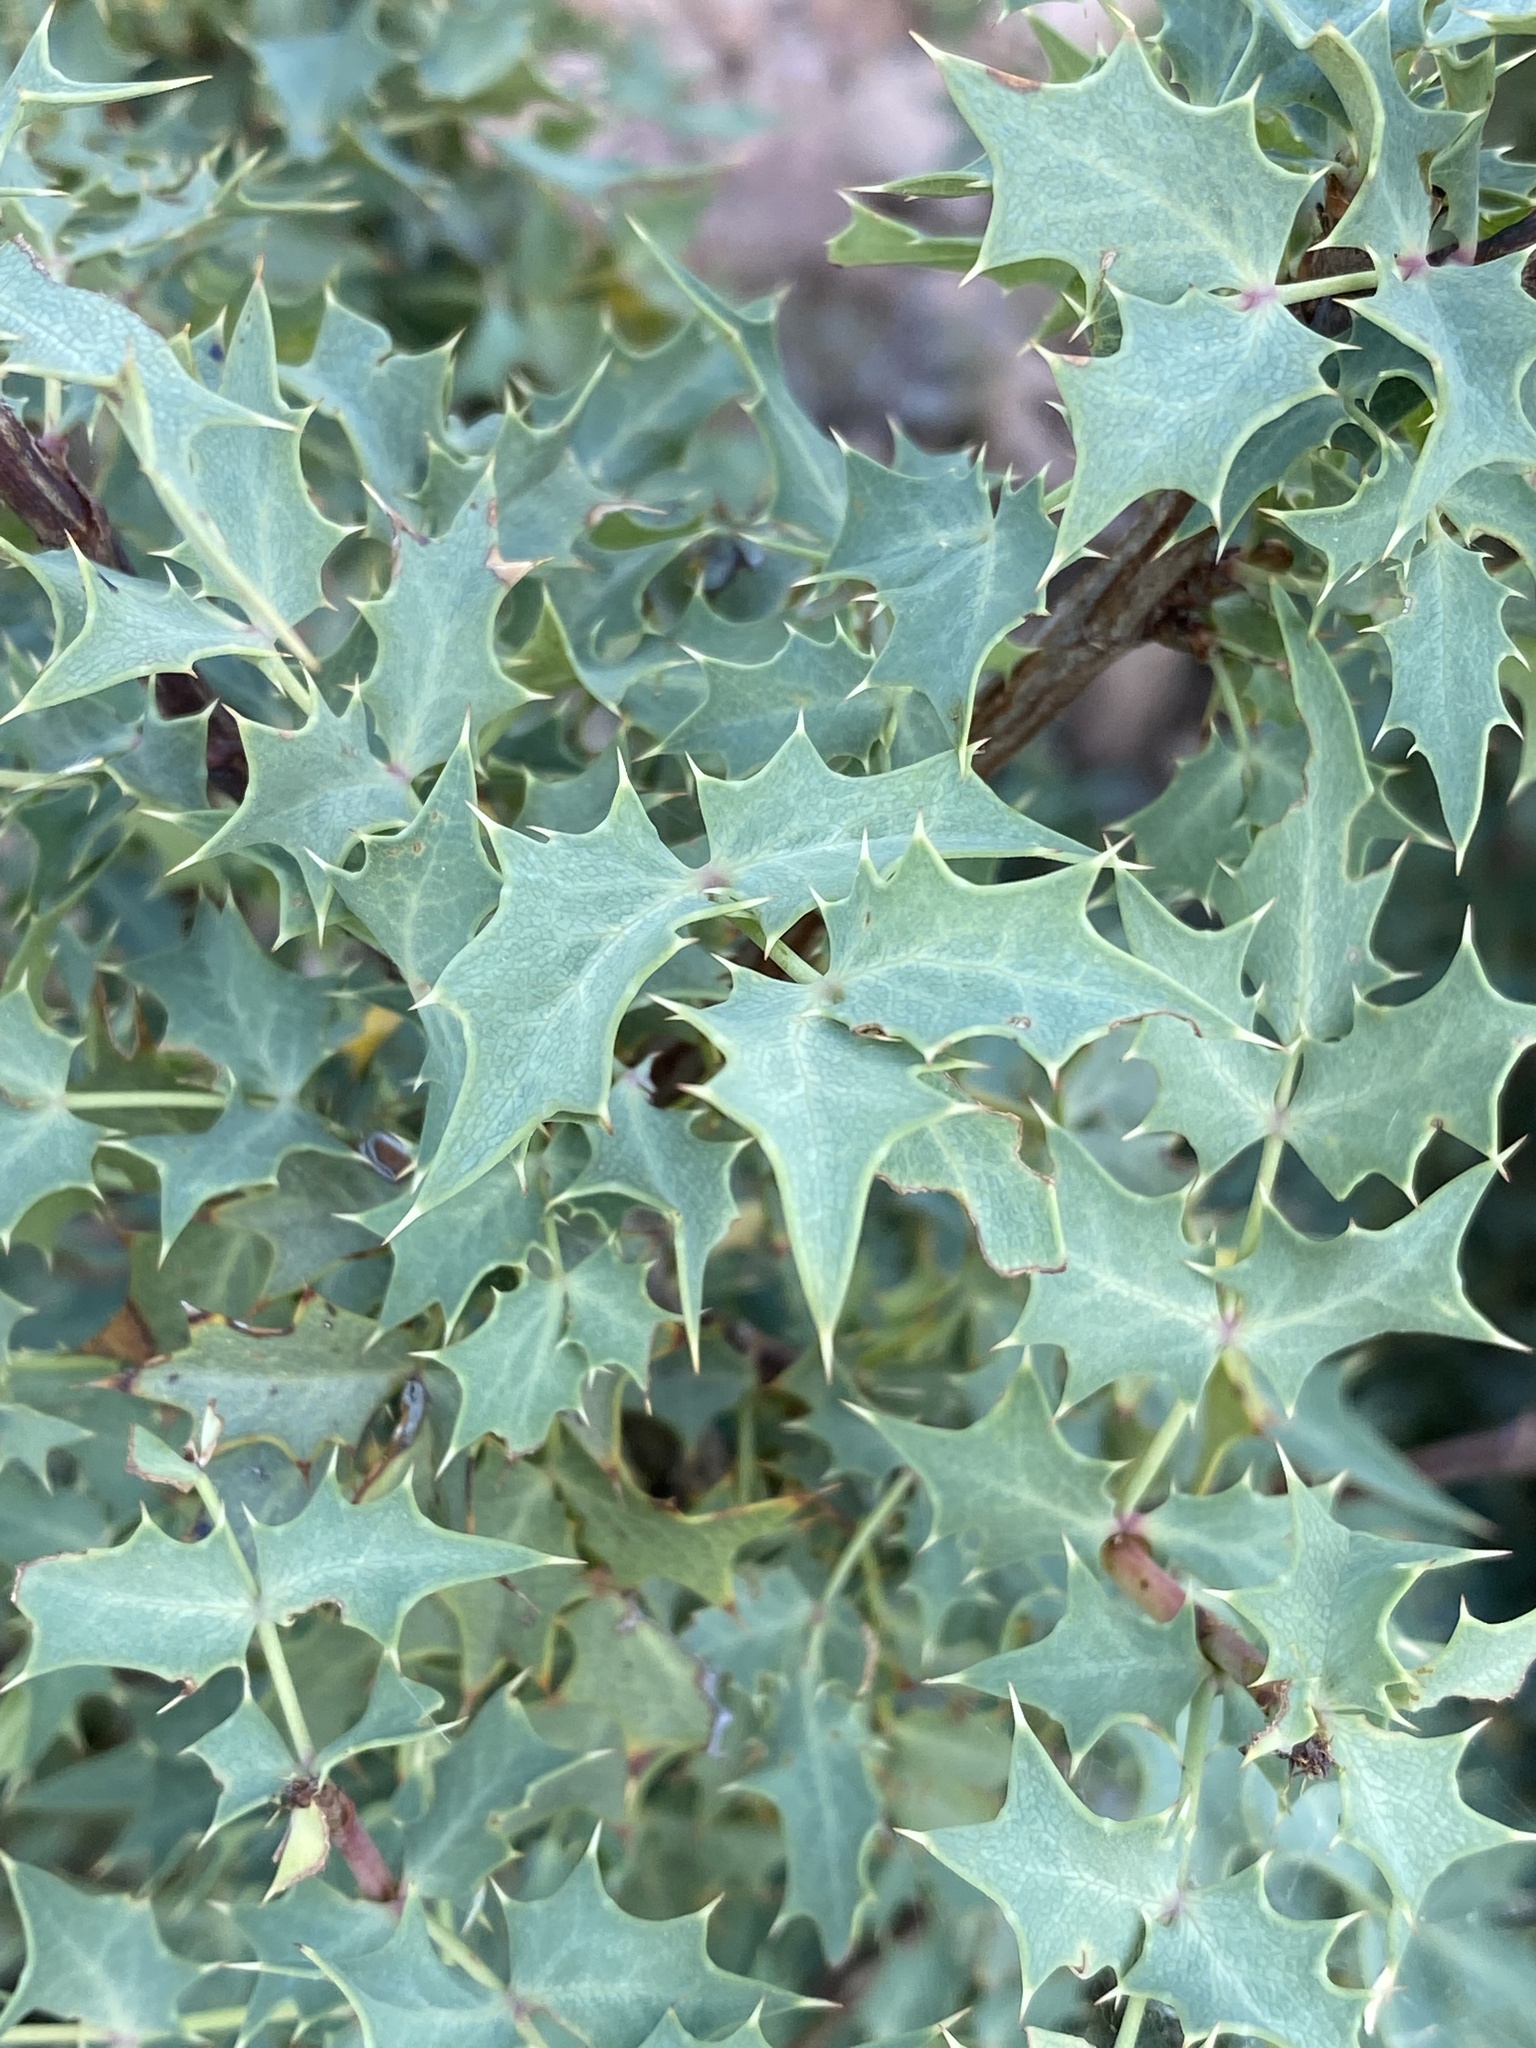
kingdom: Plantae
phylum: Tracheophyta
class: Magnoliopsida
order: Ranunculales
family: Berberidaceae
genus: Alloberberis
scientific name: Alloberberis fremontii
